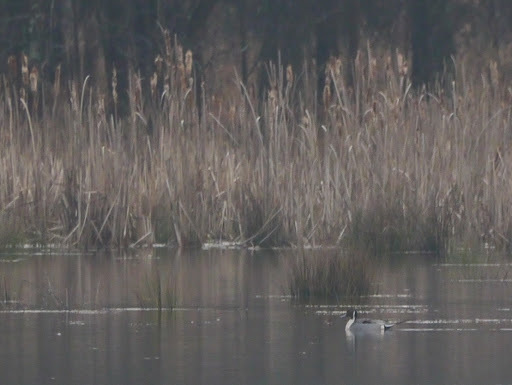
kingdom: Animalia
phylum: Chordata
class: Aves
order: Anseriformes
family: Anatidae
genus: Anas
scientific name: Anas acuta
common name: Northern pintail
